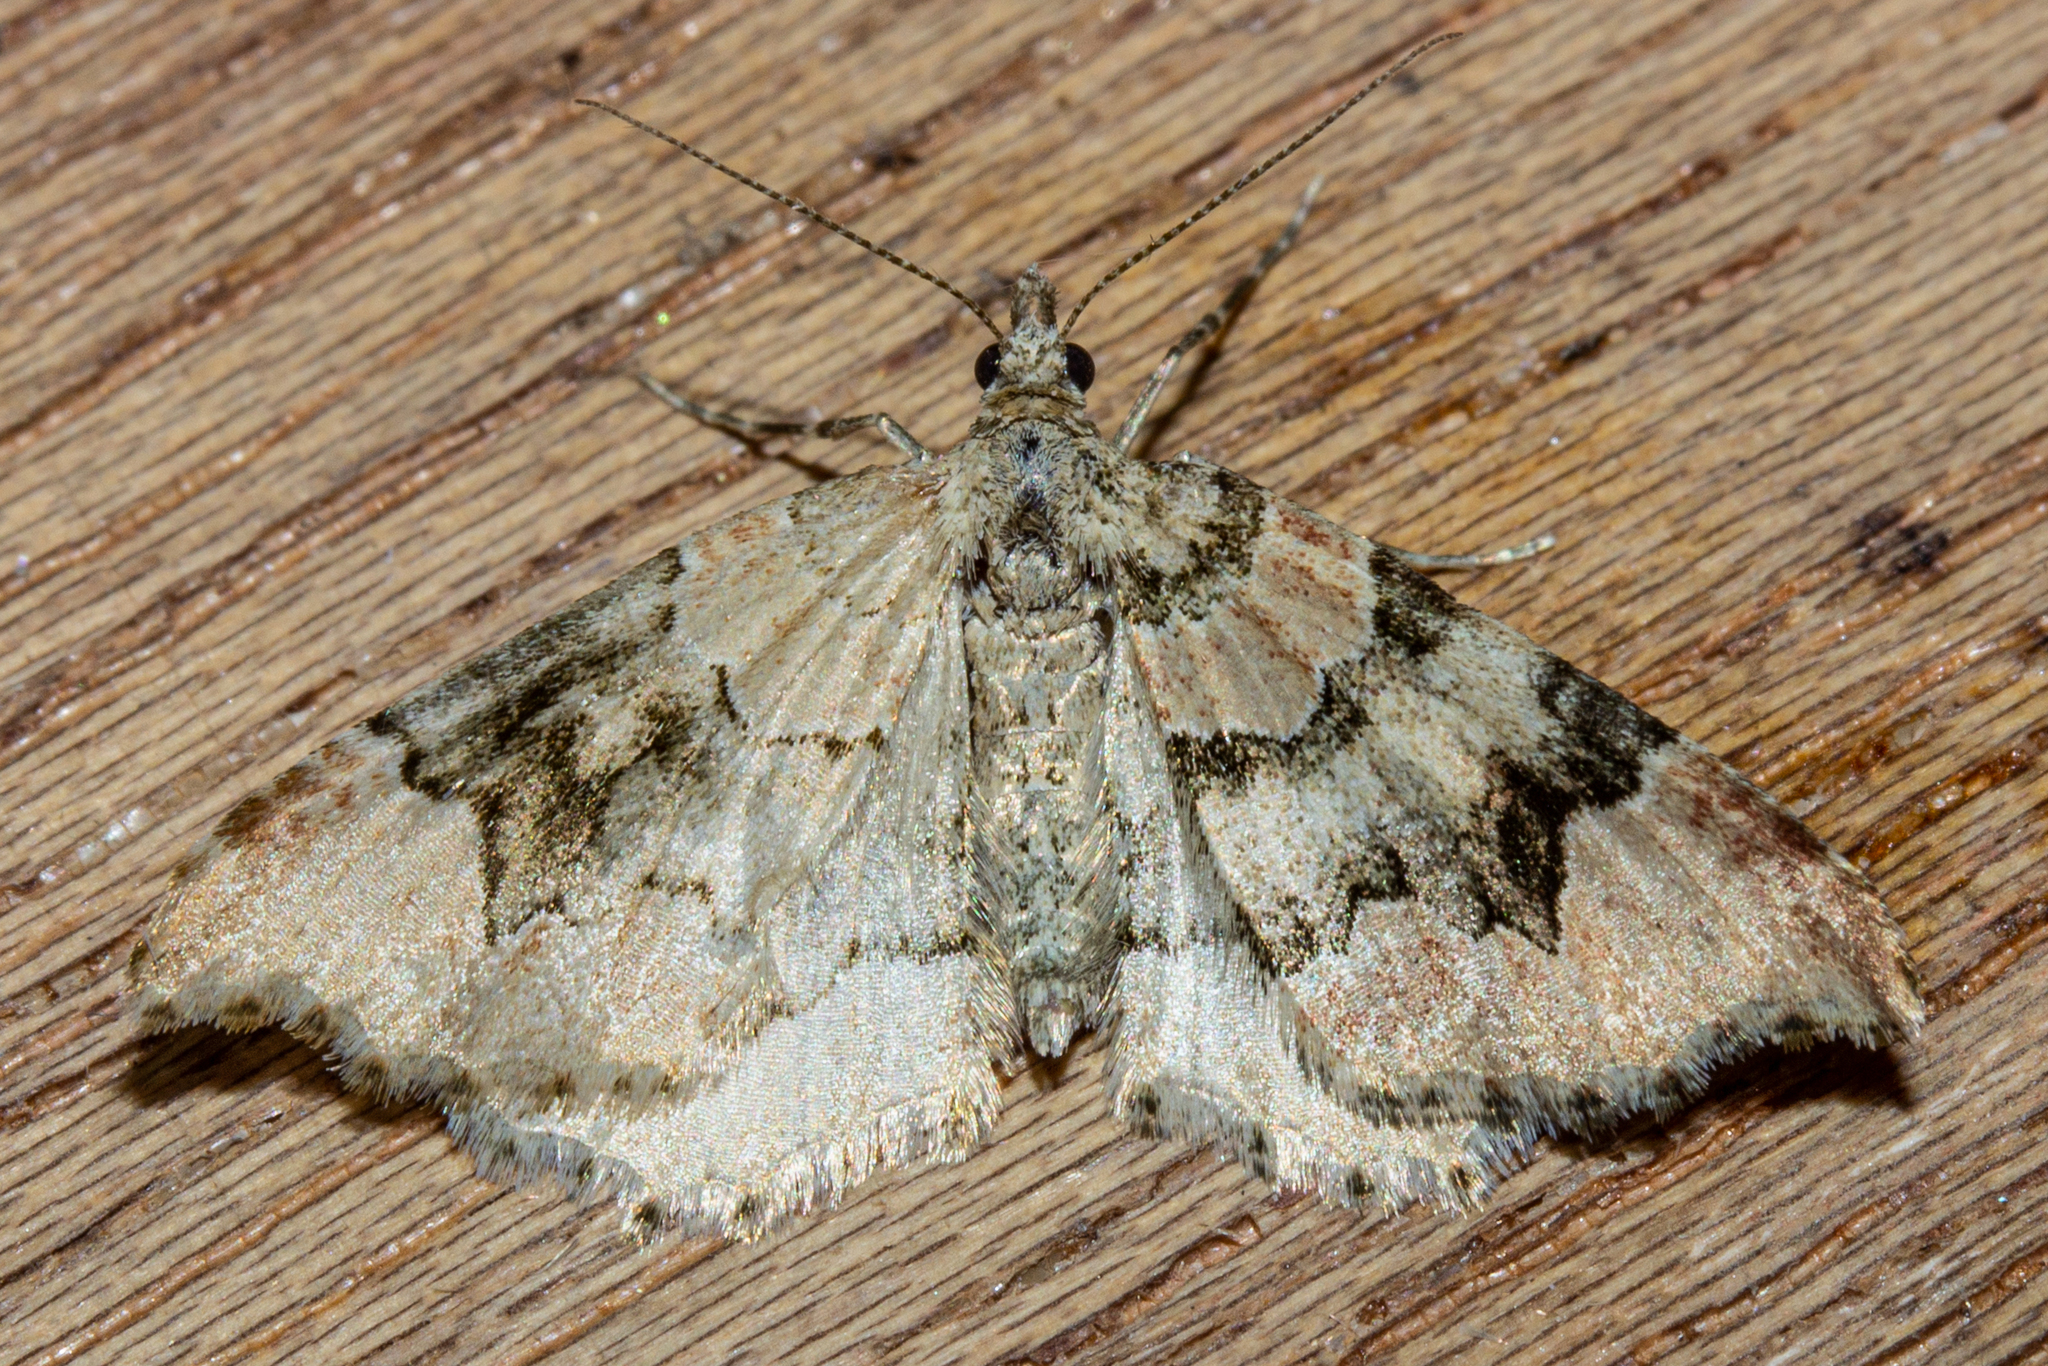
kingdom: Animalia
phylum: Arthropoda
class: Insecta
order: Lepidoptera
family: Geometridae
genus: Helastia
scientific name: Helastia cryptica
